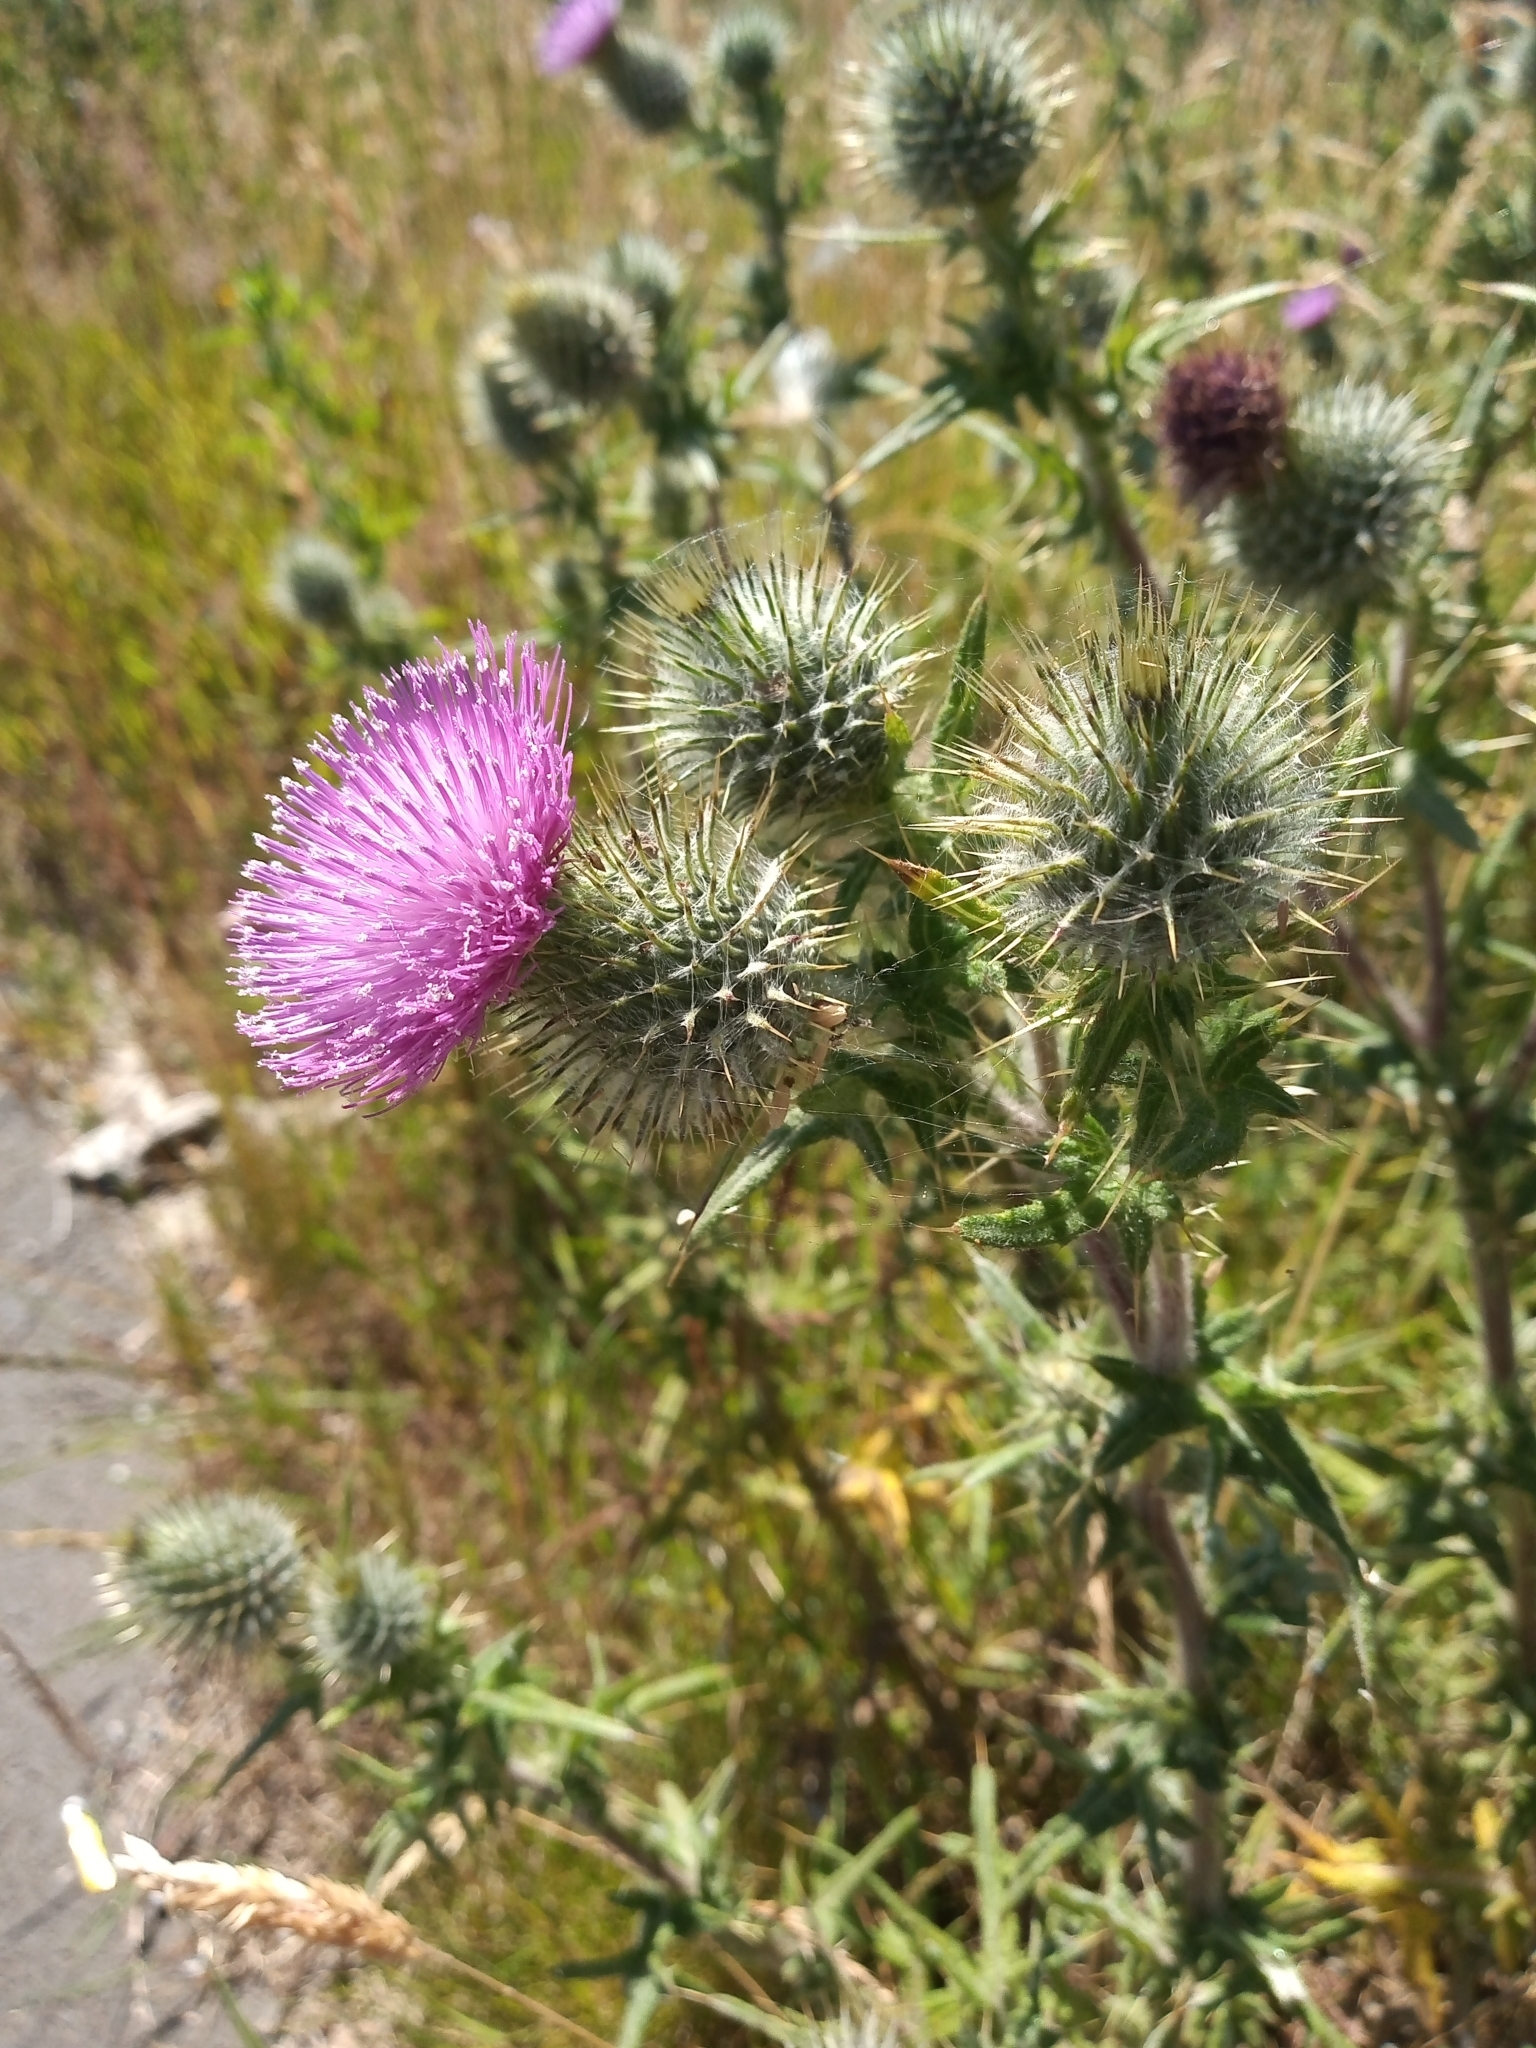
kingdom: Plantae
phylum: Tracheophyta
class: Magnoliopsida
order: Asterales
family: Asteraceae
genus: Cirsium
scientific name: Cirsium vulgare
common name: Bull thistle
